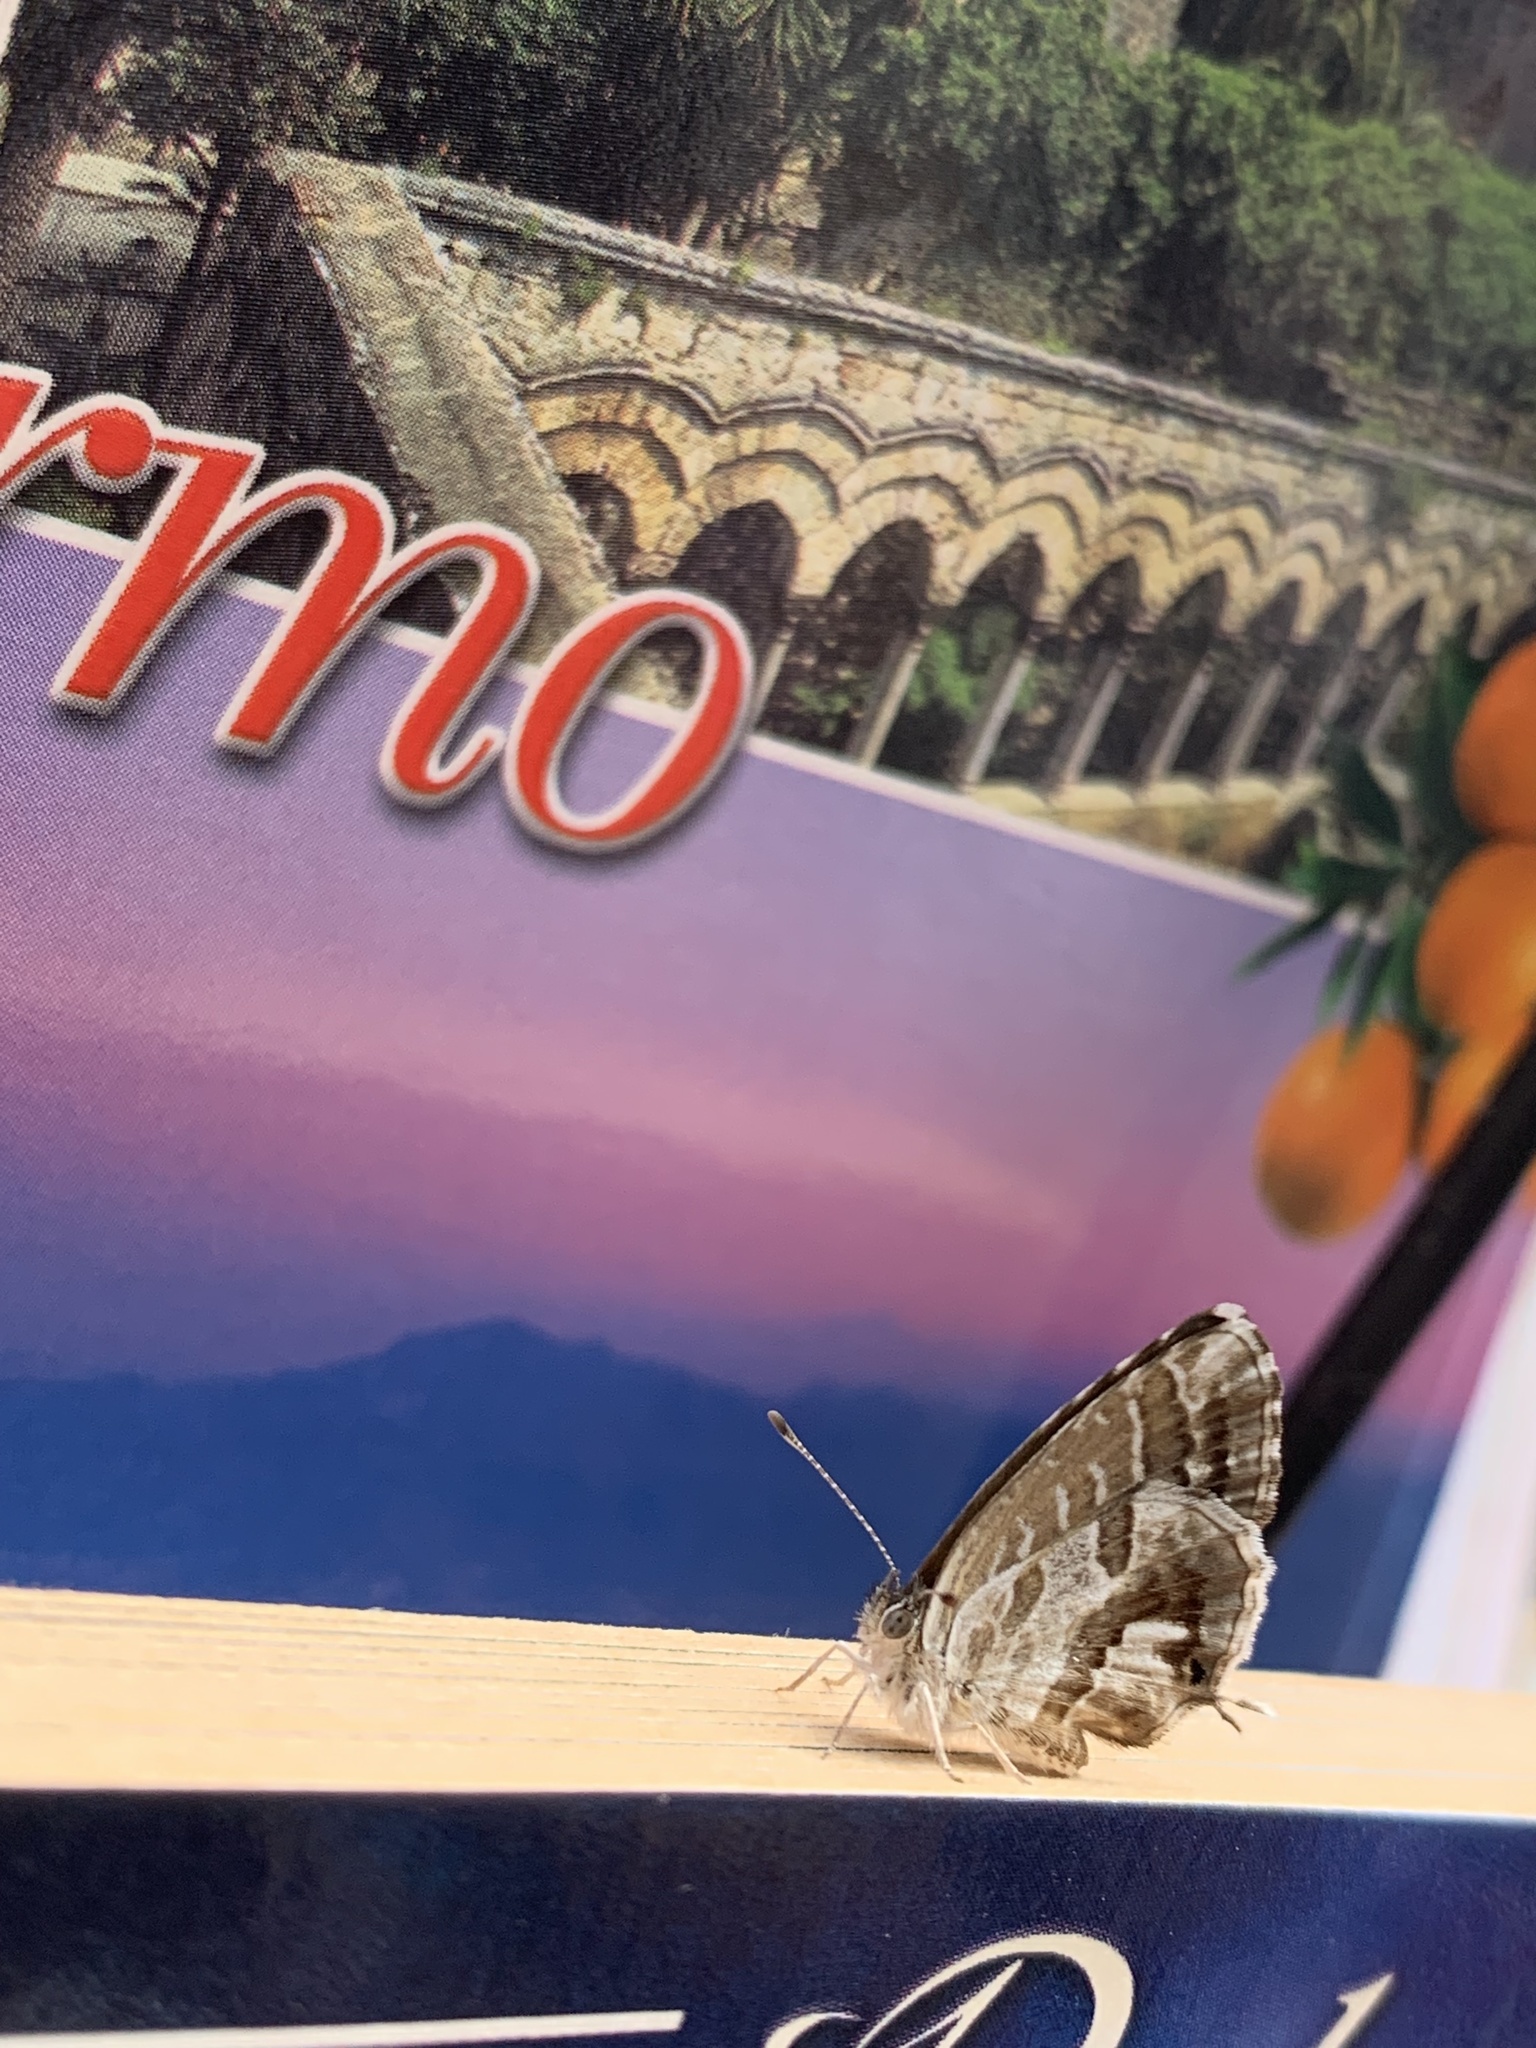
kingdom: Animalia
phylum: Arthropoda
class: Insecta
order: Lepidoptera
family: Lycaenidae
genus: Cacyreus
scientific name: Cacyreus marshalli
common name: Geranium bronze
